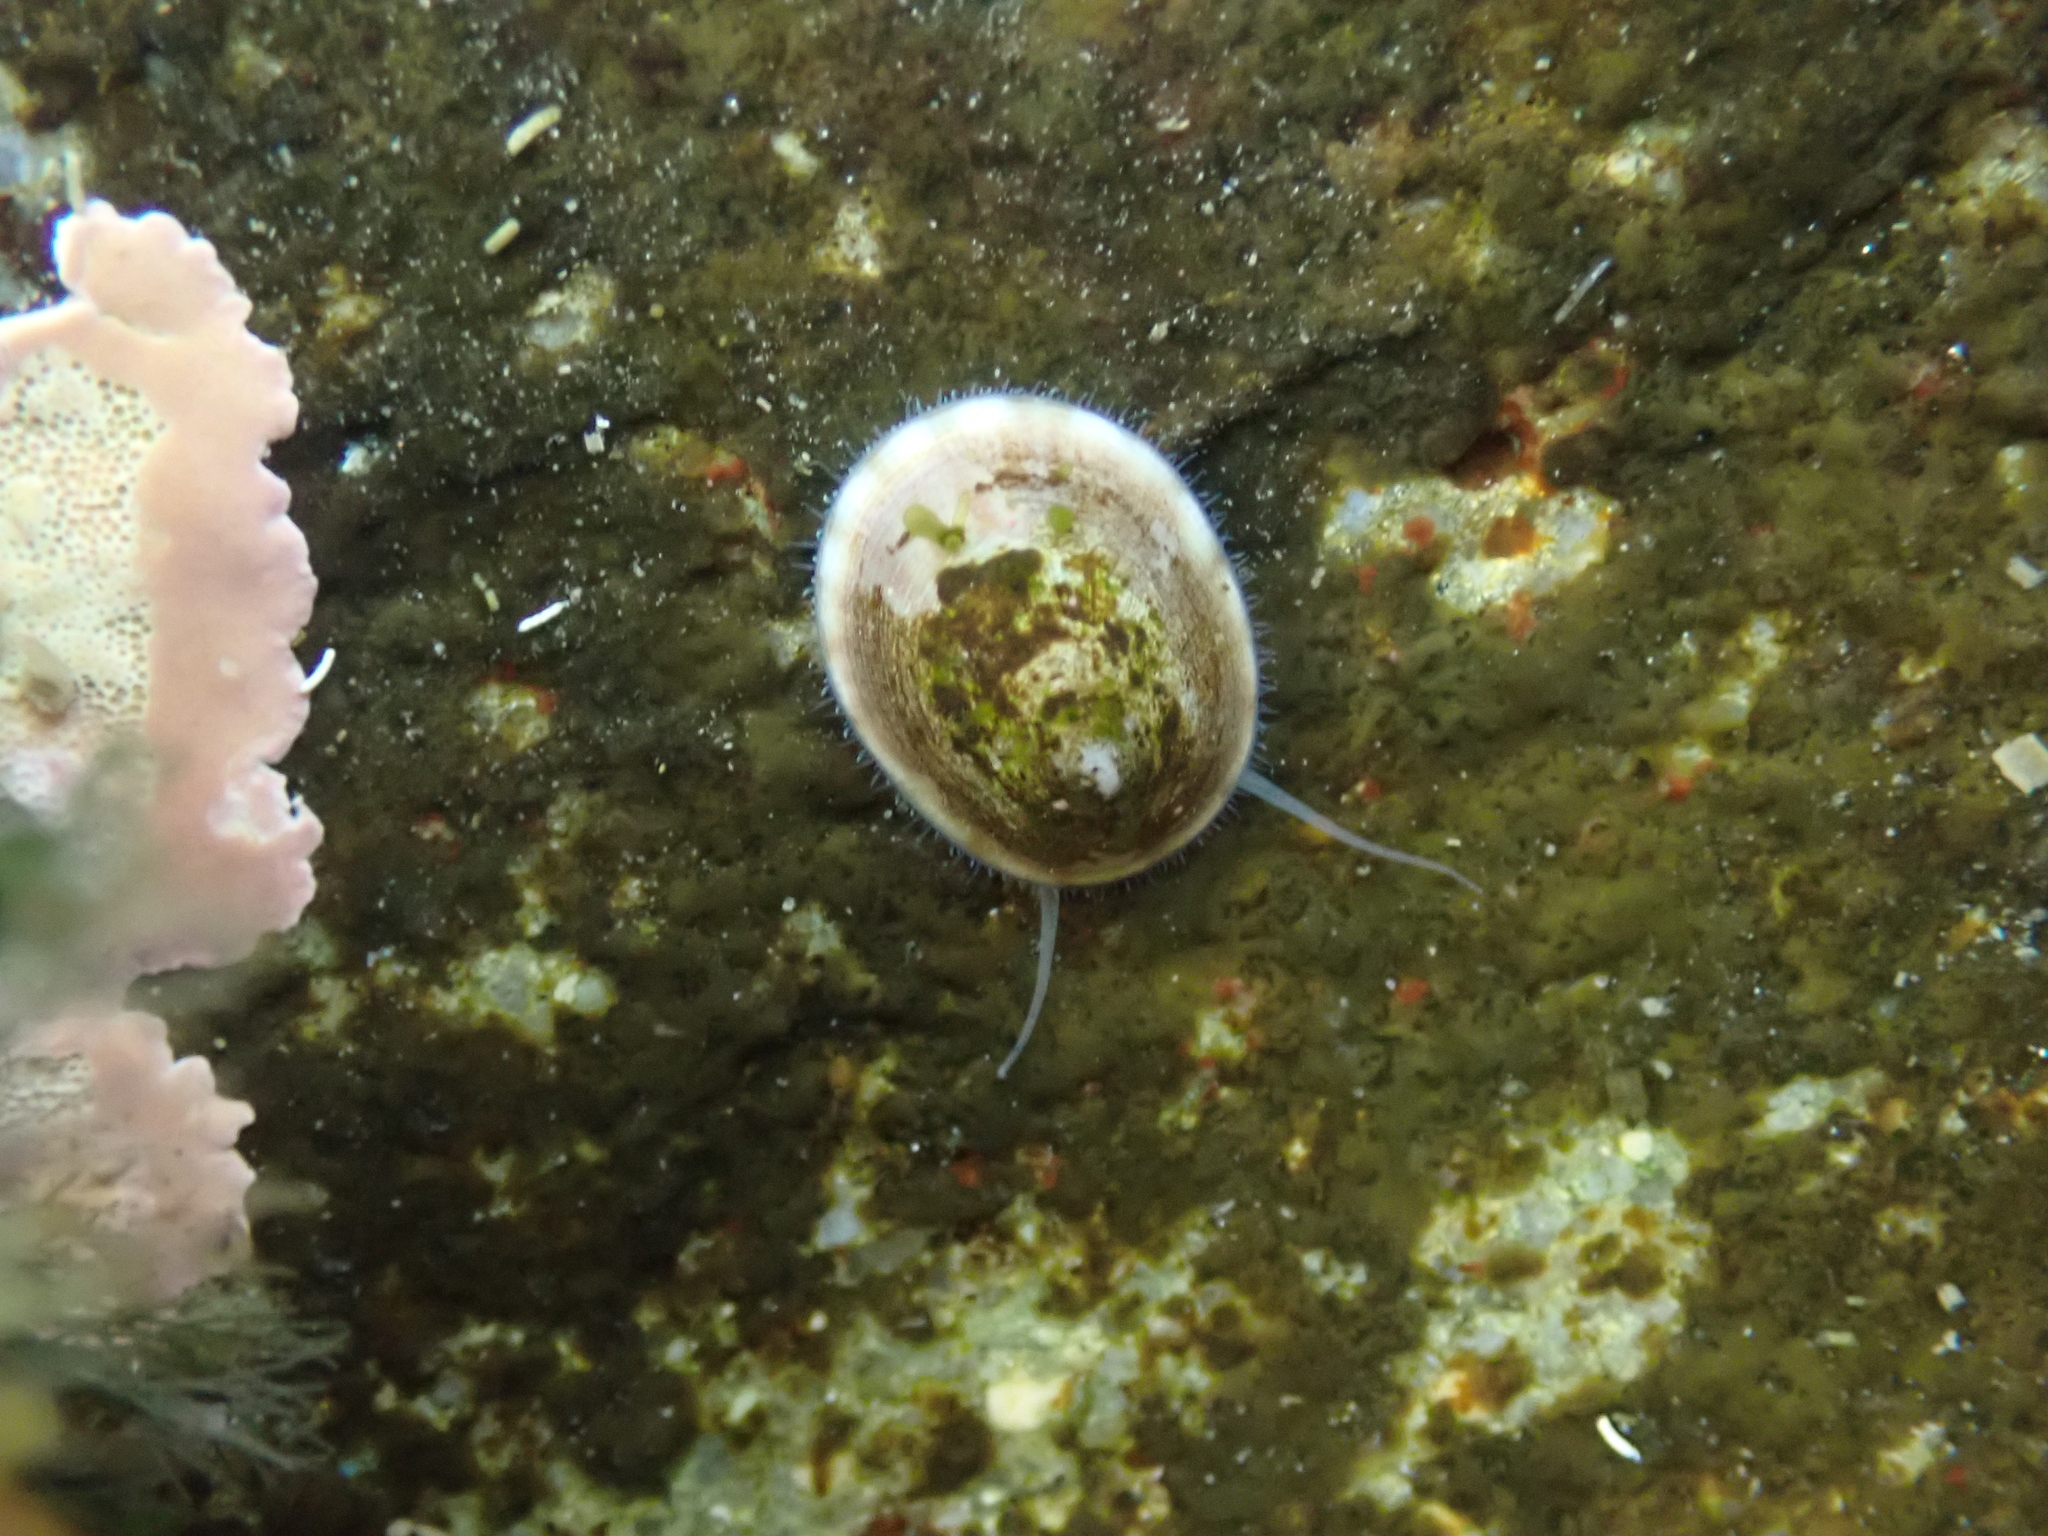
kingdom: Animalia
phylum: Mollusca
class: Gastropoda
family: Lottiidae
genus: Testudinalia
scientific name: Testudinalia testudinalis
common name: Common tortoiseshell limpet
